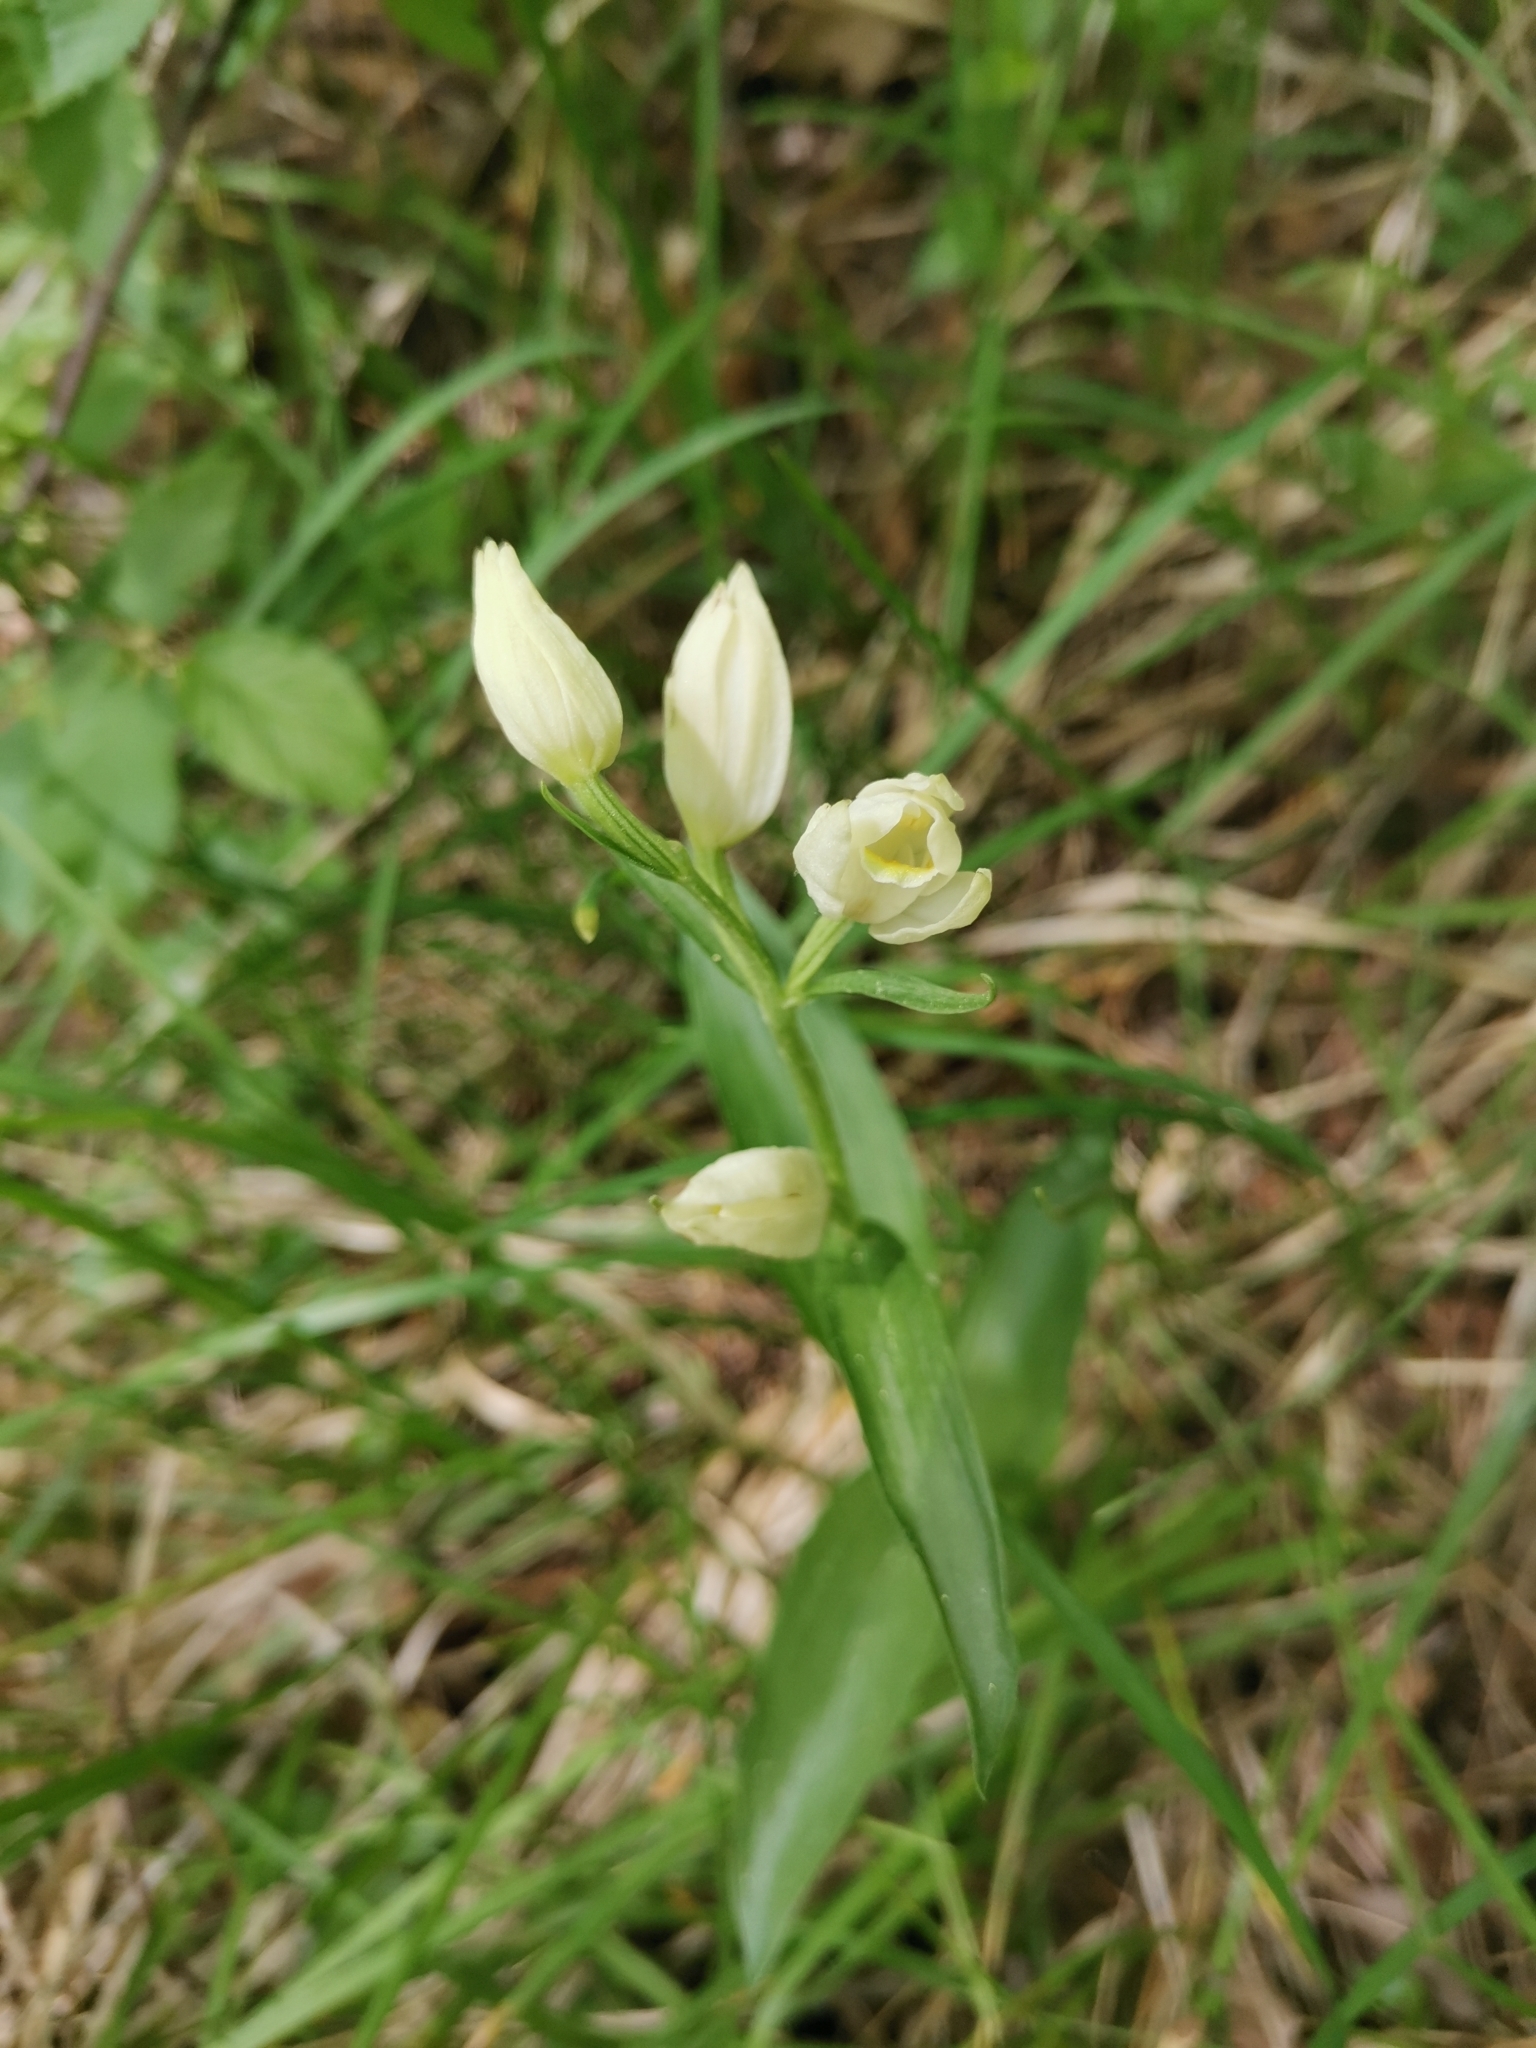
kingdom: Plantae
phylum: Tracheophyta
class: Liliopsida
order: Asparagales
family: Orchidaceae
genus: Cephalanthera
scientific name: Cephalanthera damasonium
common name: White helleborine
